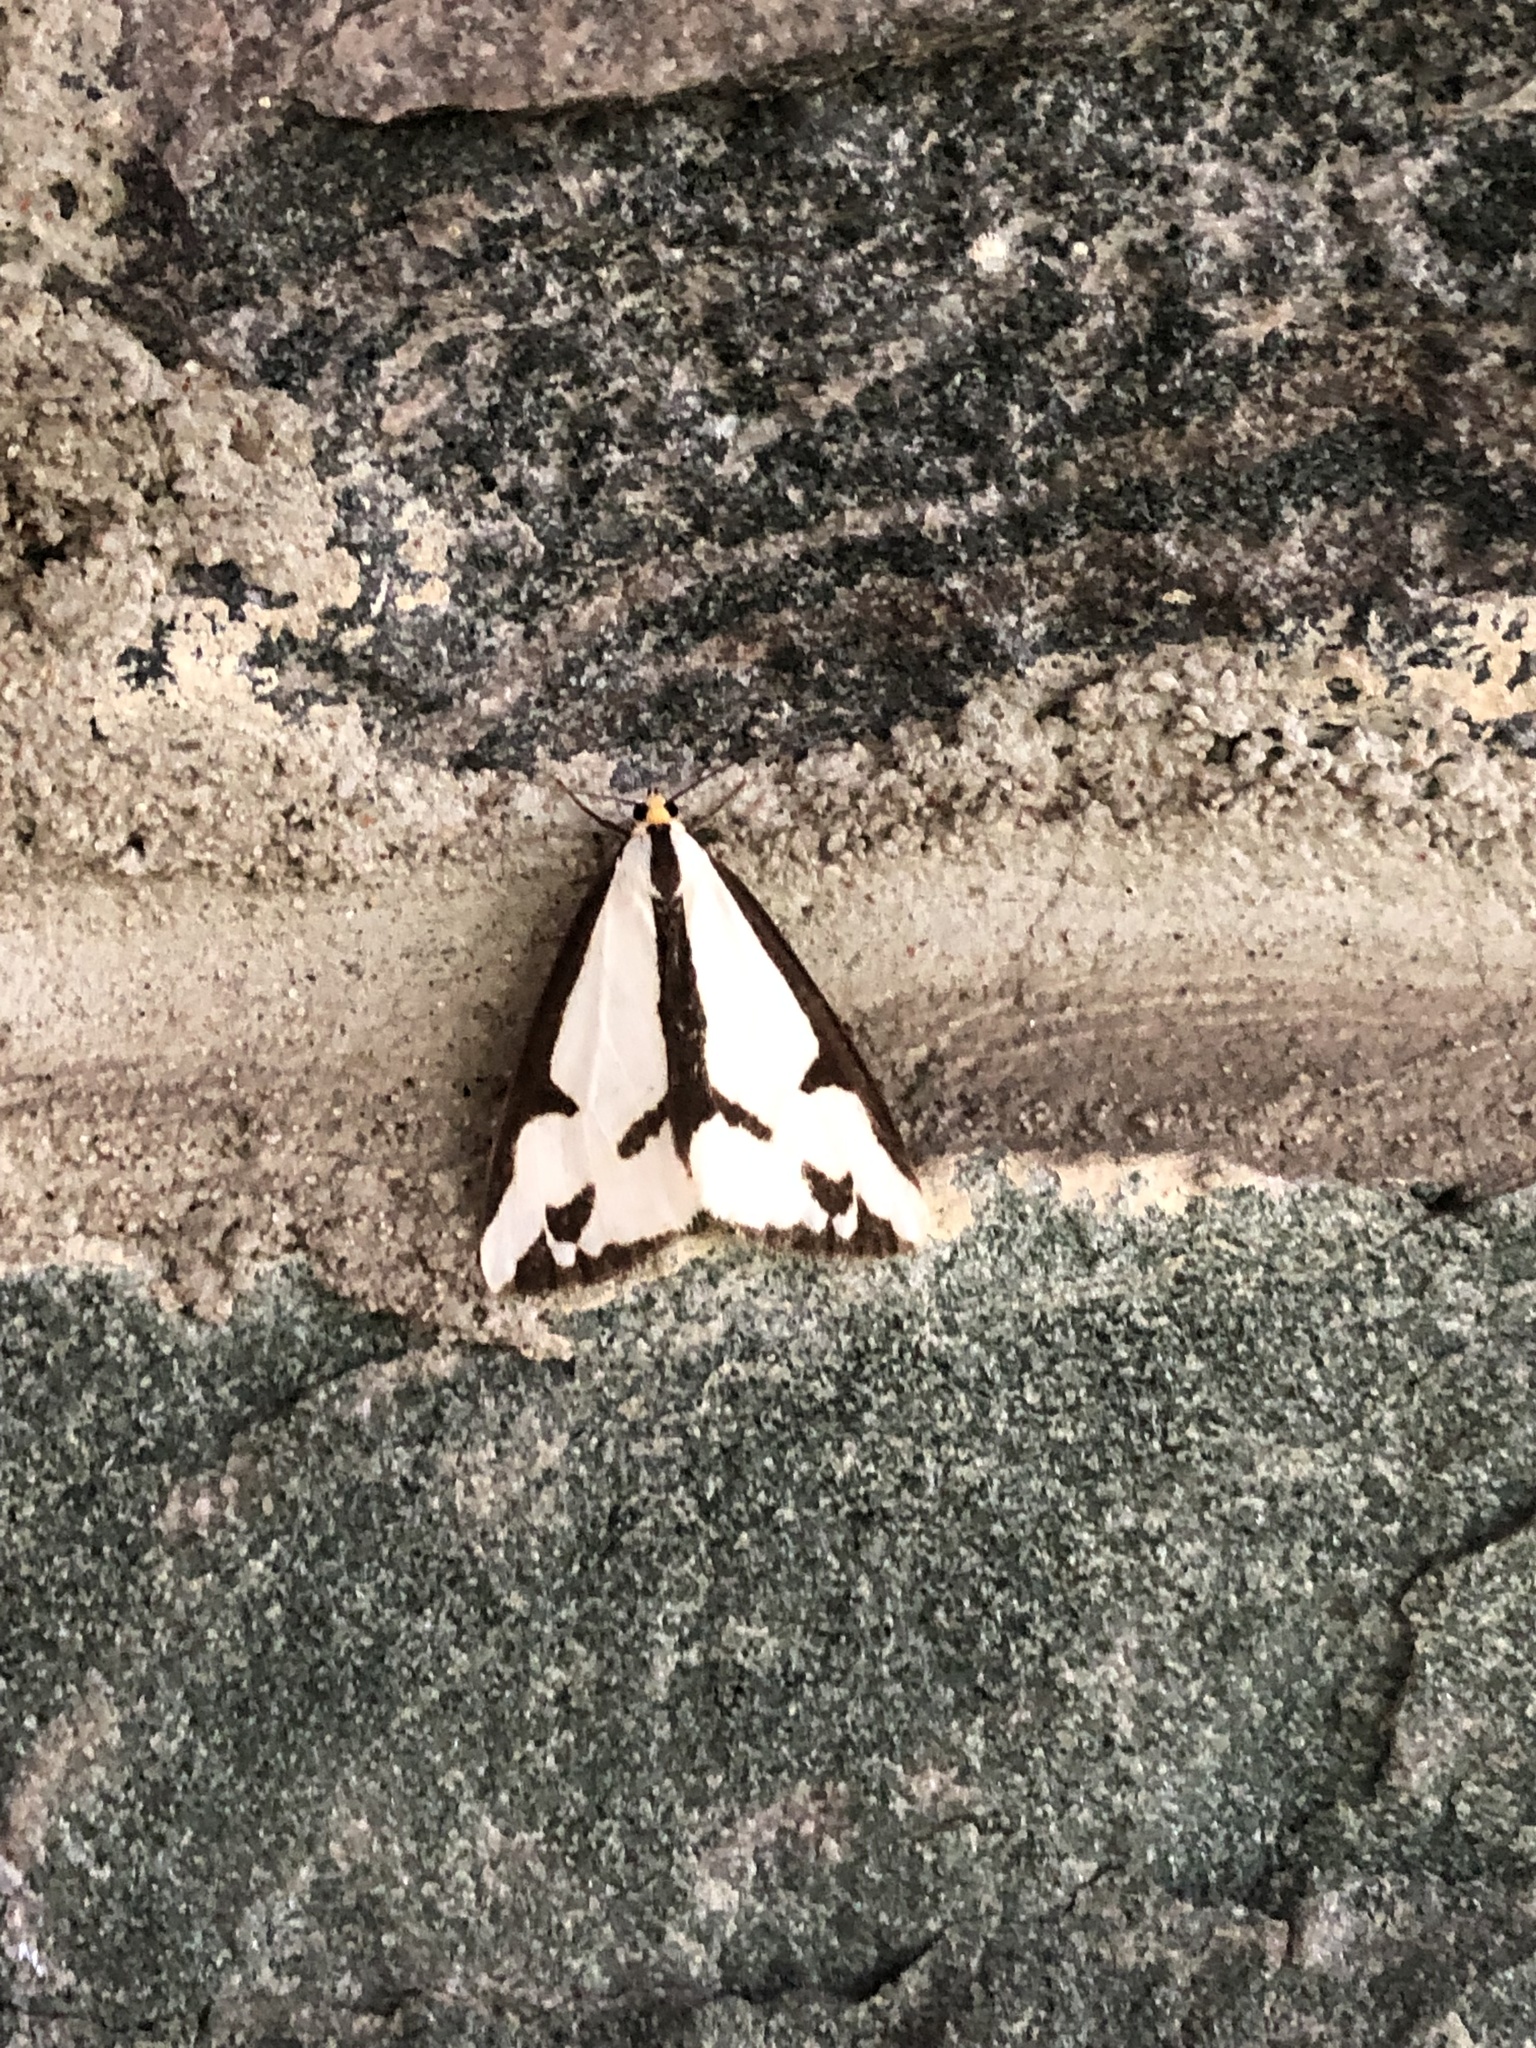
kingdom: Animalia
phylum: Arthropoda
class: Insecta
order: Lepidoptera
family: Erebidae
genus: Haploa
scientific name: Haploa lecontei
